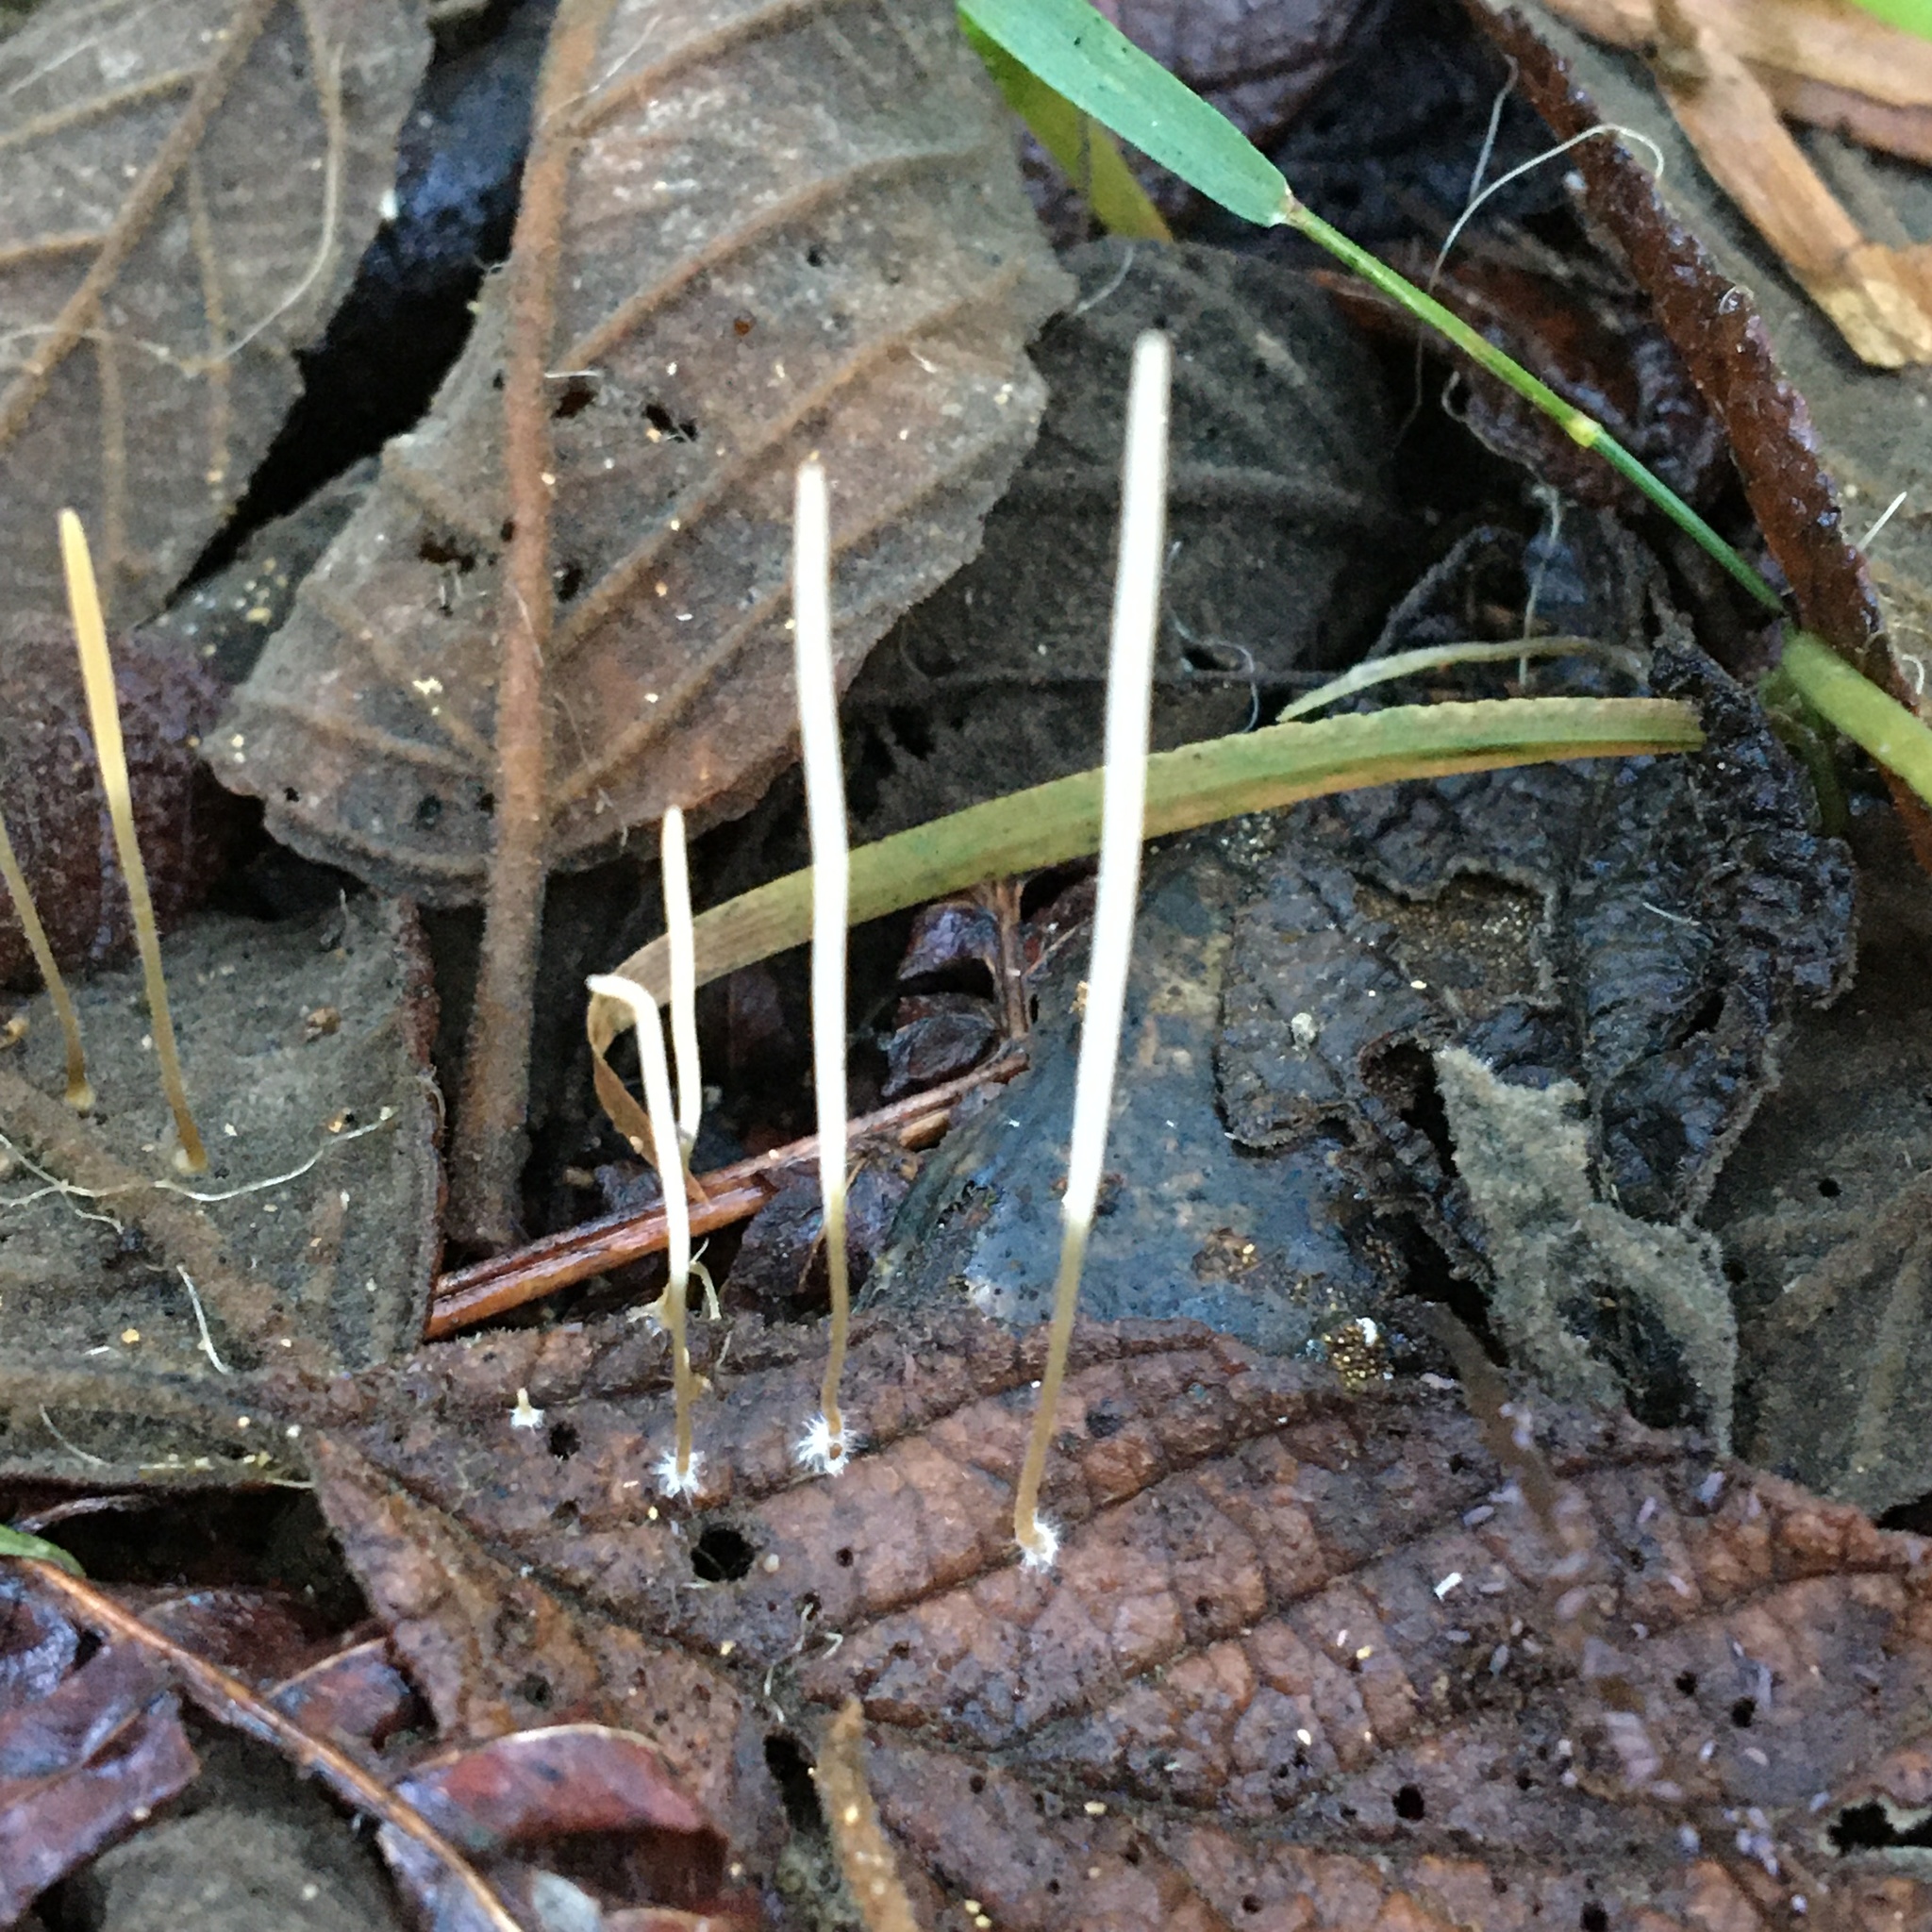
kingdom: Fungi
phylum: Basidiomycota
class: Agaricomycetes
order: Agaricales
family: Typhulaceae
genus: Typhula
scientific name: Typhula juncea
